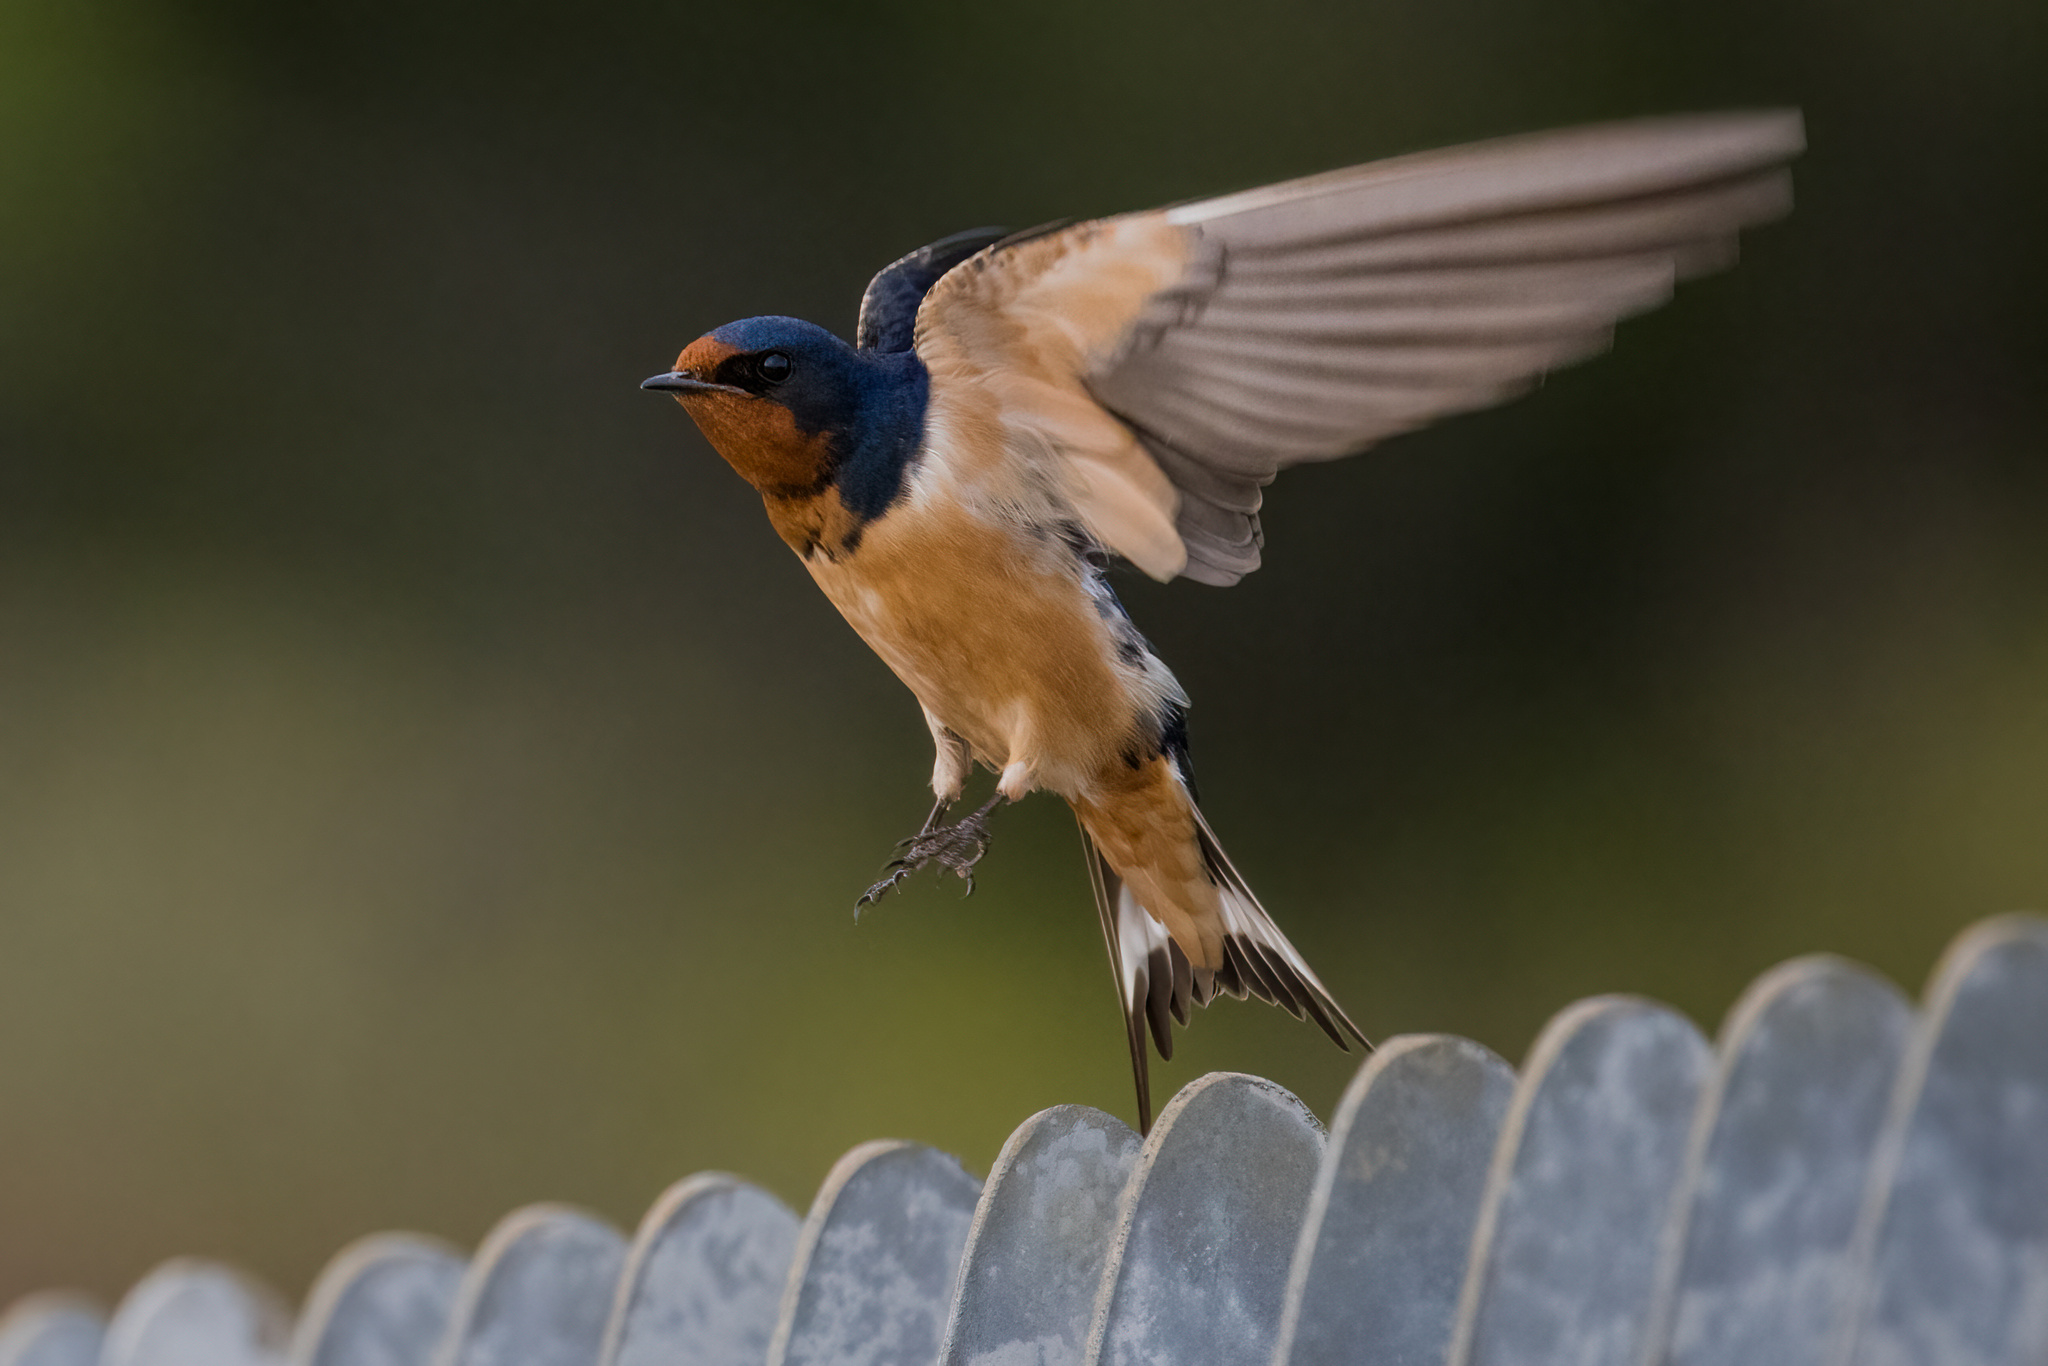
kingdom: Animalia
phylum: Chordata
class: Aves
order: Passeriformes
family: Hirundinidae
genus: Hirundo
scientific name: Hirundo rustica
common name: Barn swallow
